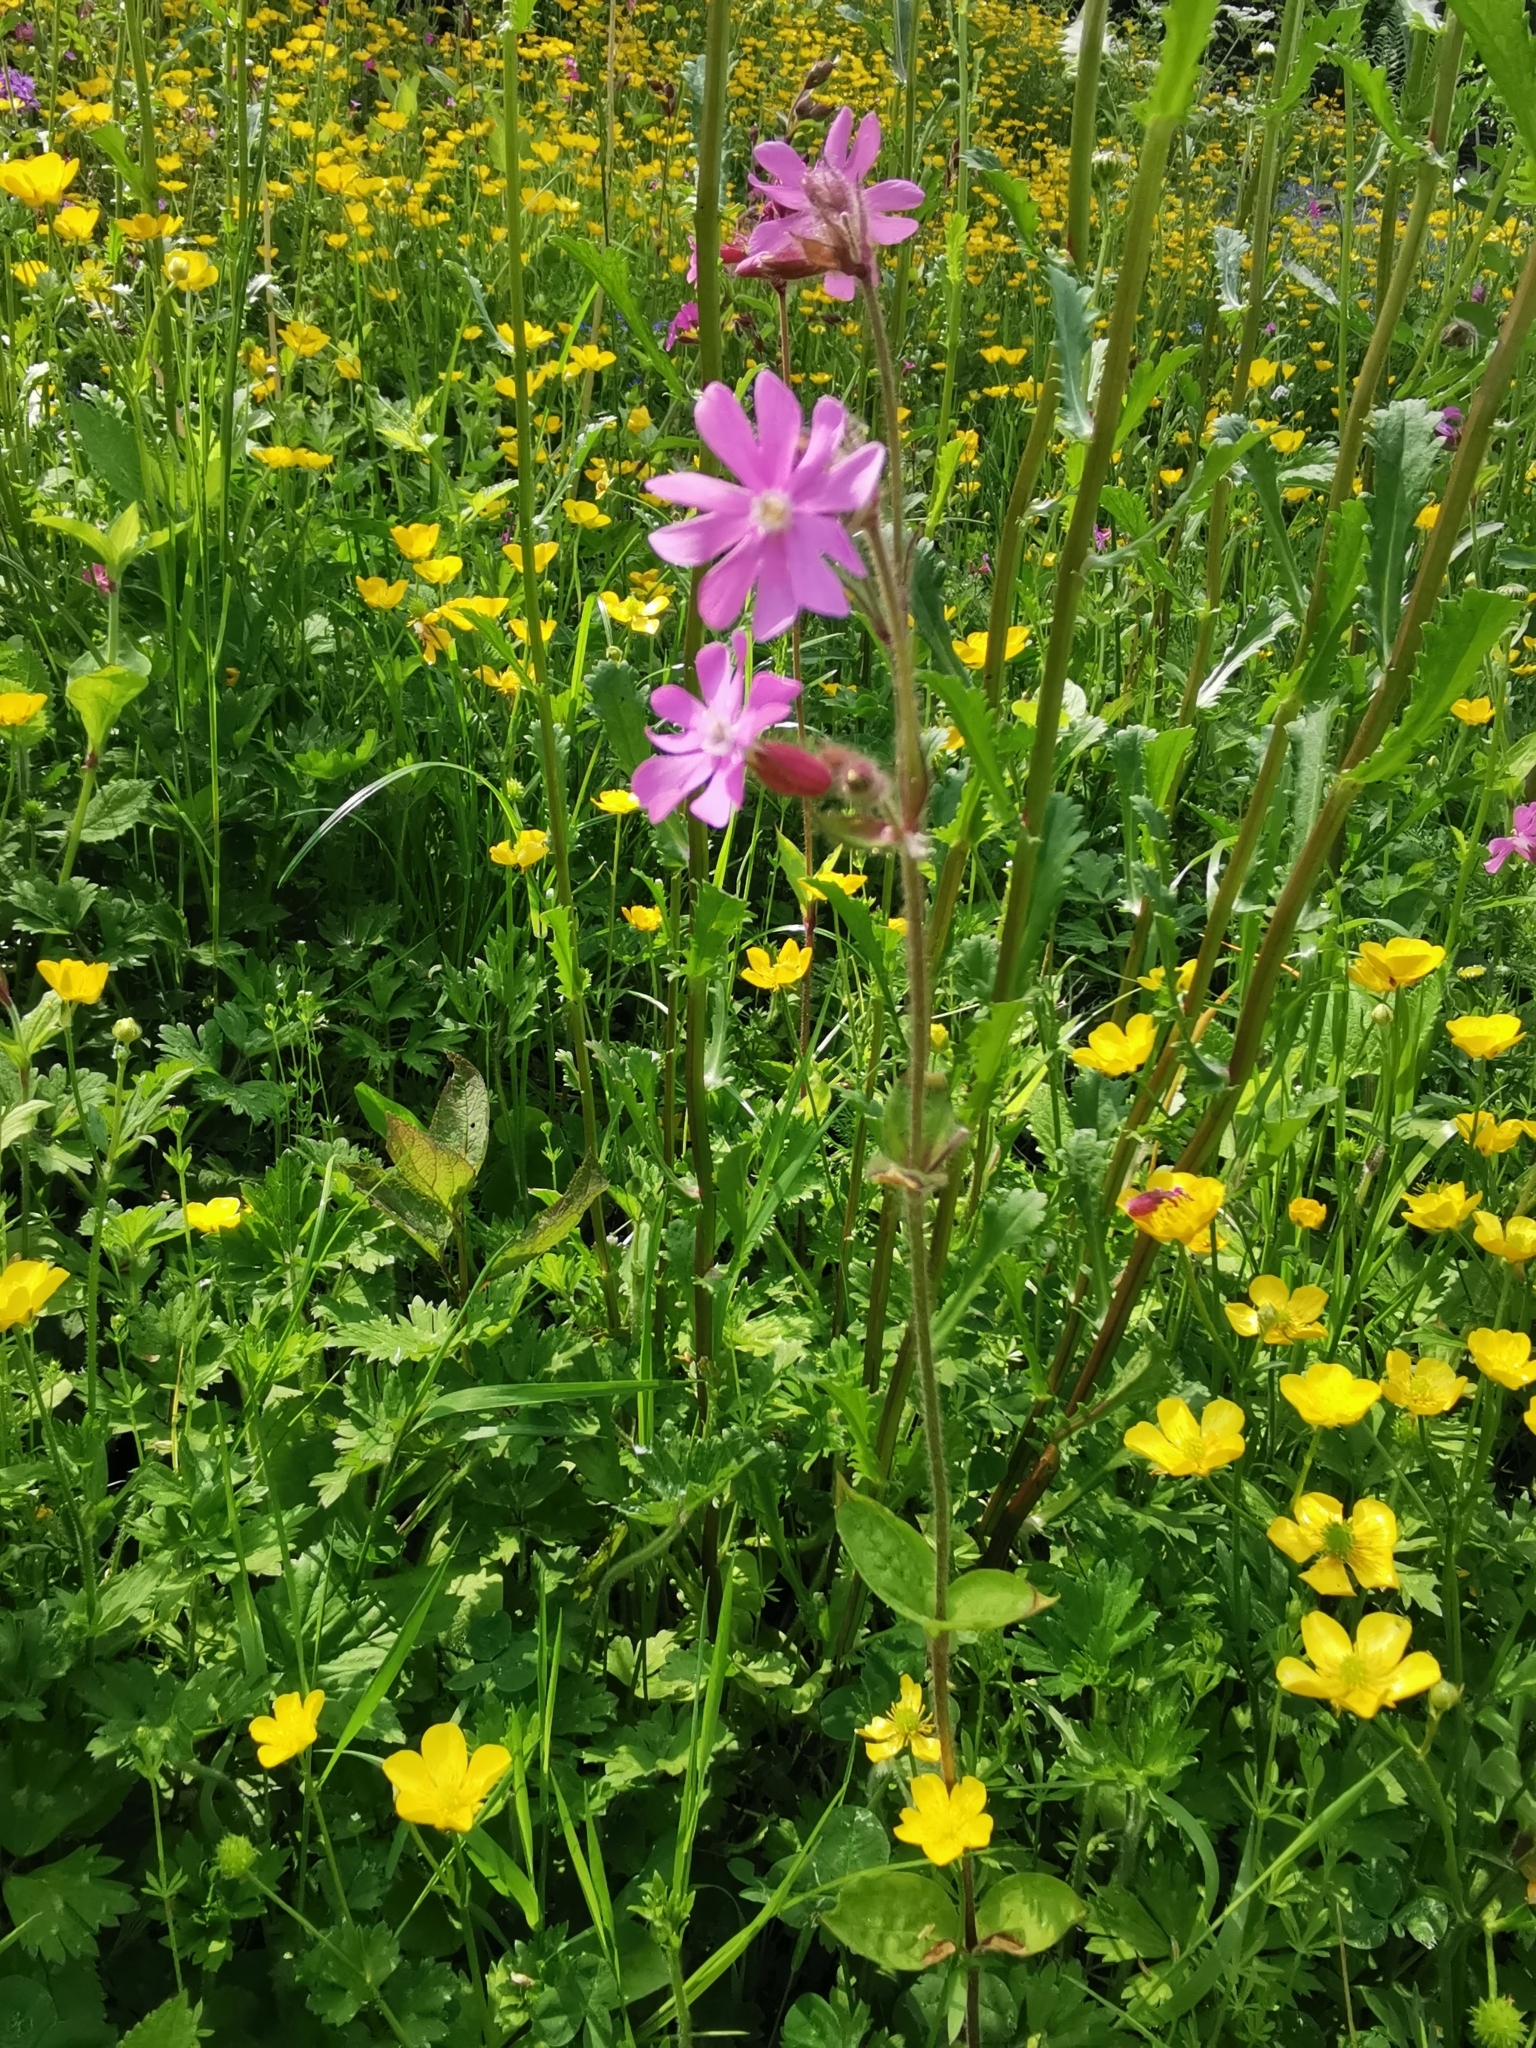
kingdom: Plantae
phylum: Tracheophyta
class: Magnoliopsida
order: Caryophyllales
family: Caryophyllaceae
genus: Silene
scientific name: Silene dioica
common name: Red campion
